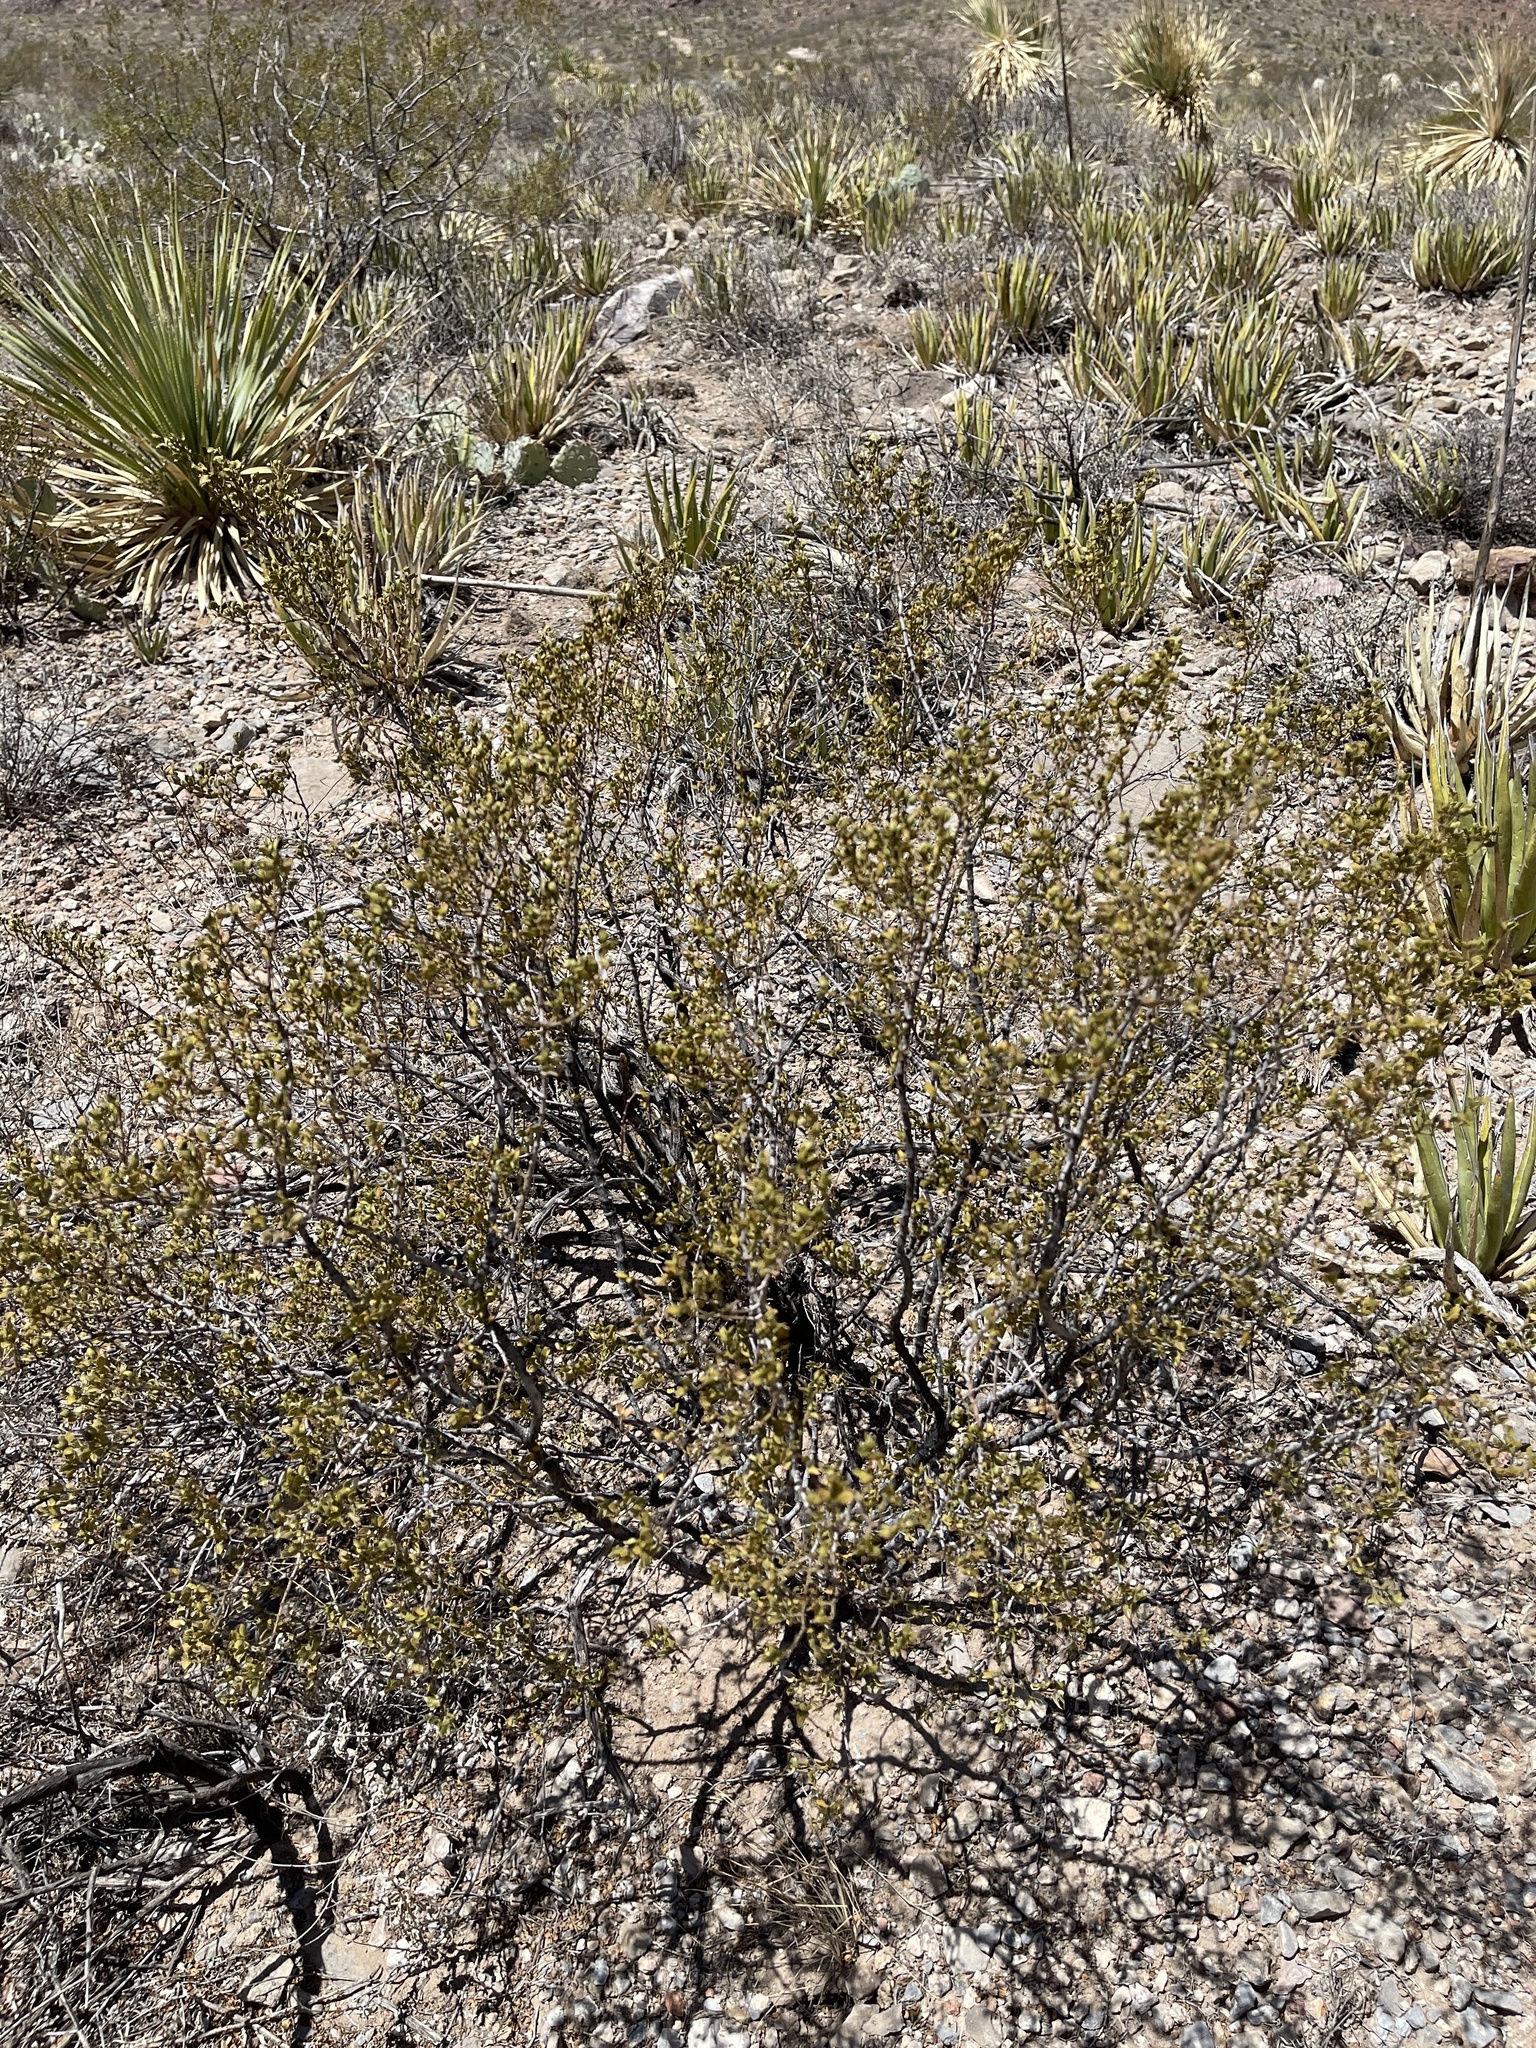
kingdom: Plantae
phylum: Tracheophyta
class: Magnoliopsida
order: Zygophyllales
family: Zygophyllaceae
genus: Larrea
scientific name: Larrea tridentata
